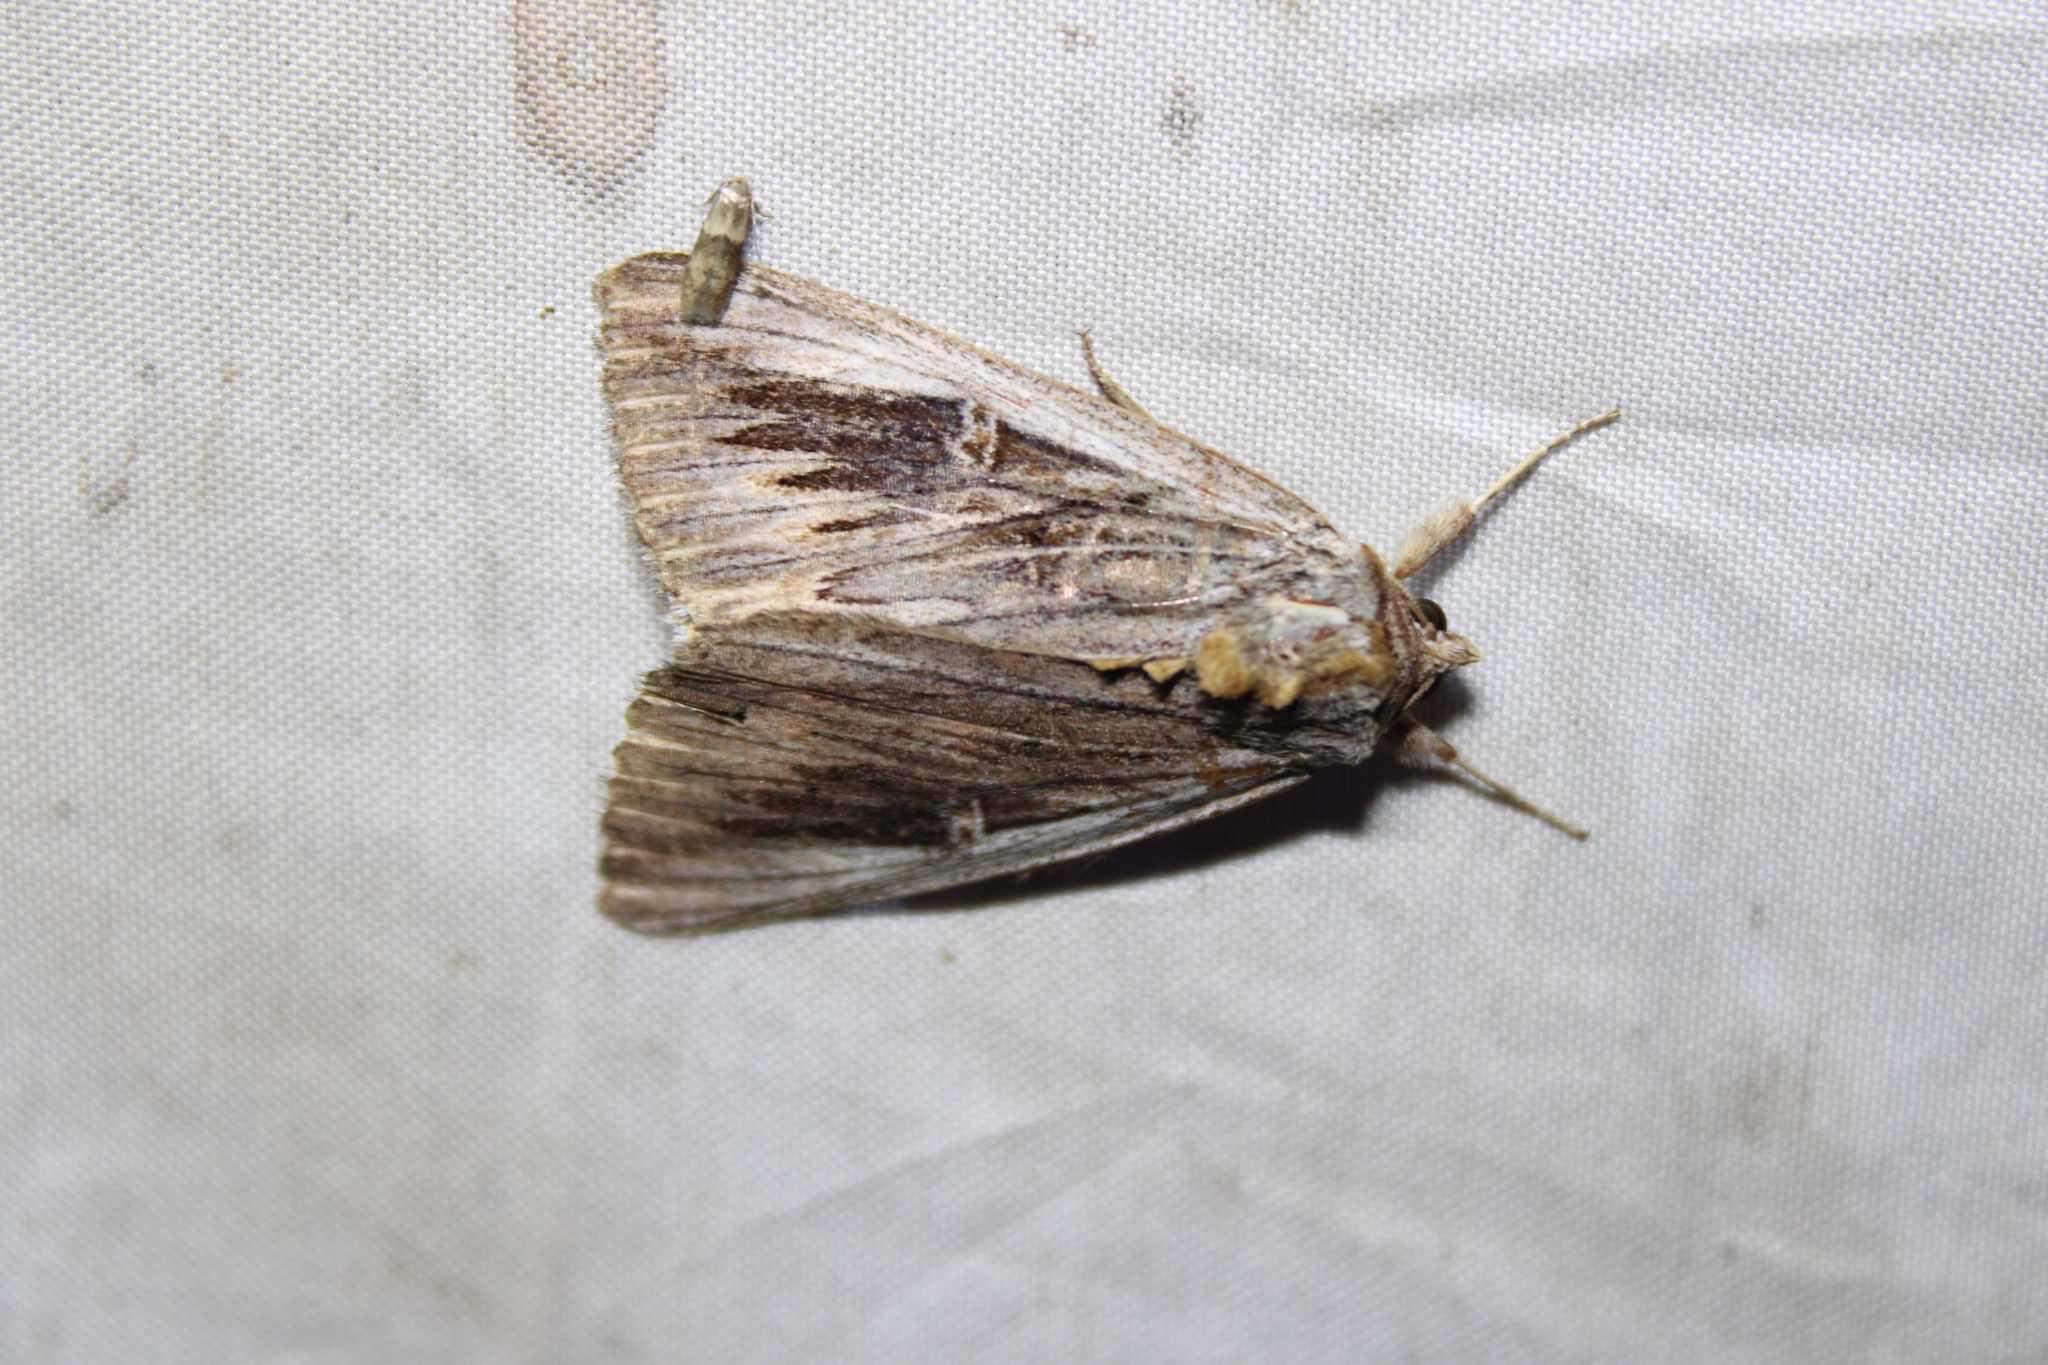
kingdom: Animalia
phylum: Arthropoda
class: Insecta
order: Lepidoptera
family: Erebidae
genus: Catocala
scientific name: Catocala herodias
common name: Pine barrens underwing
